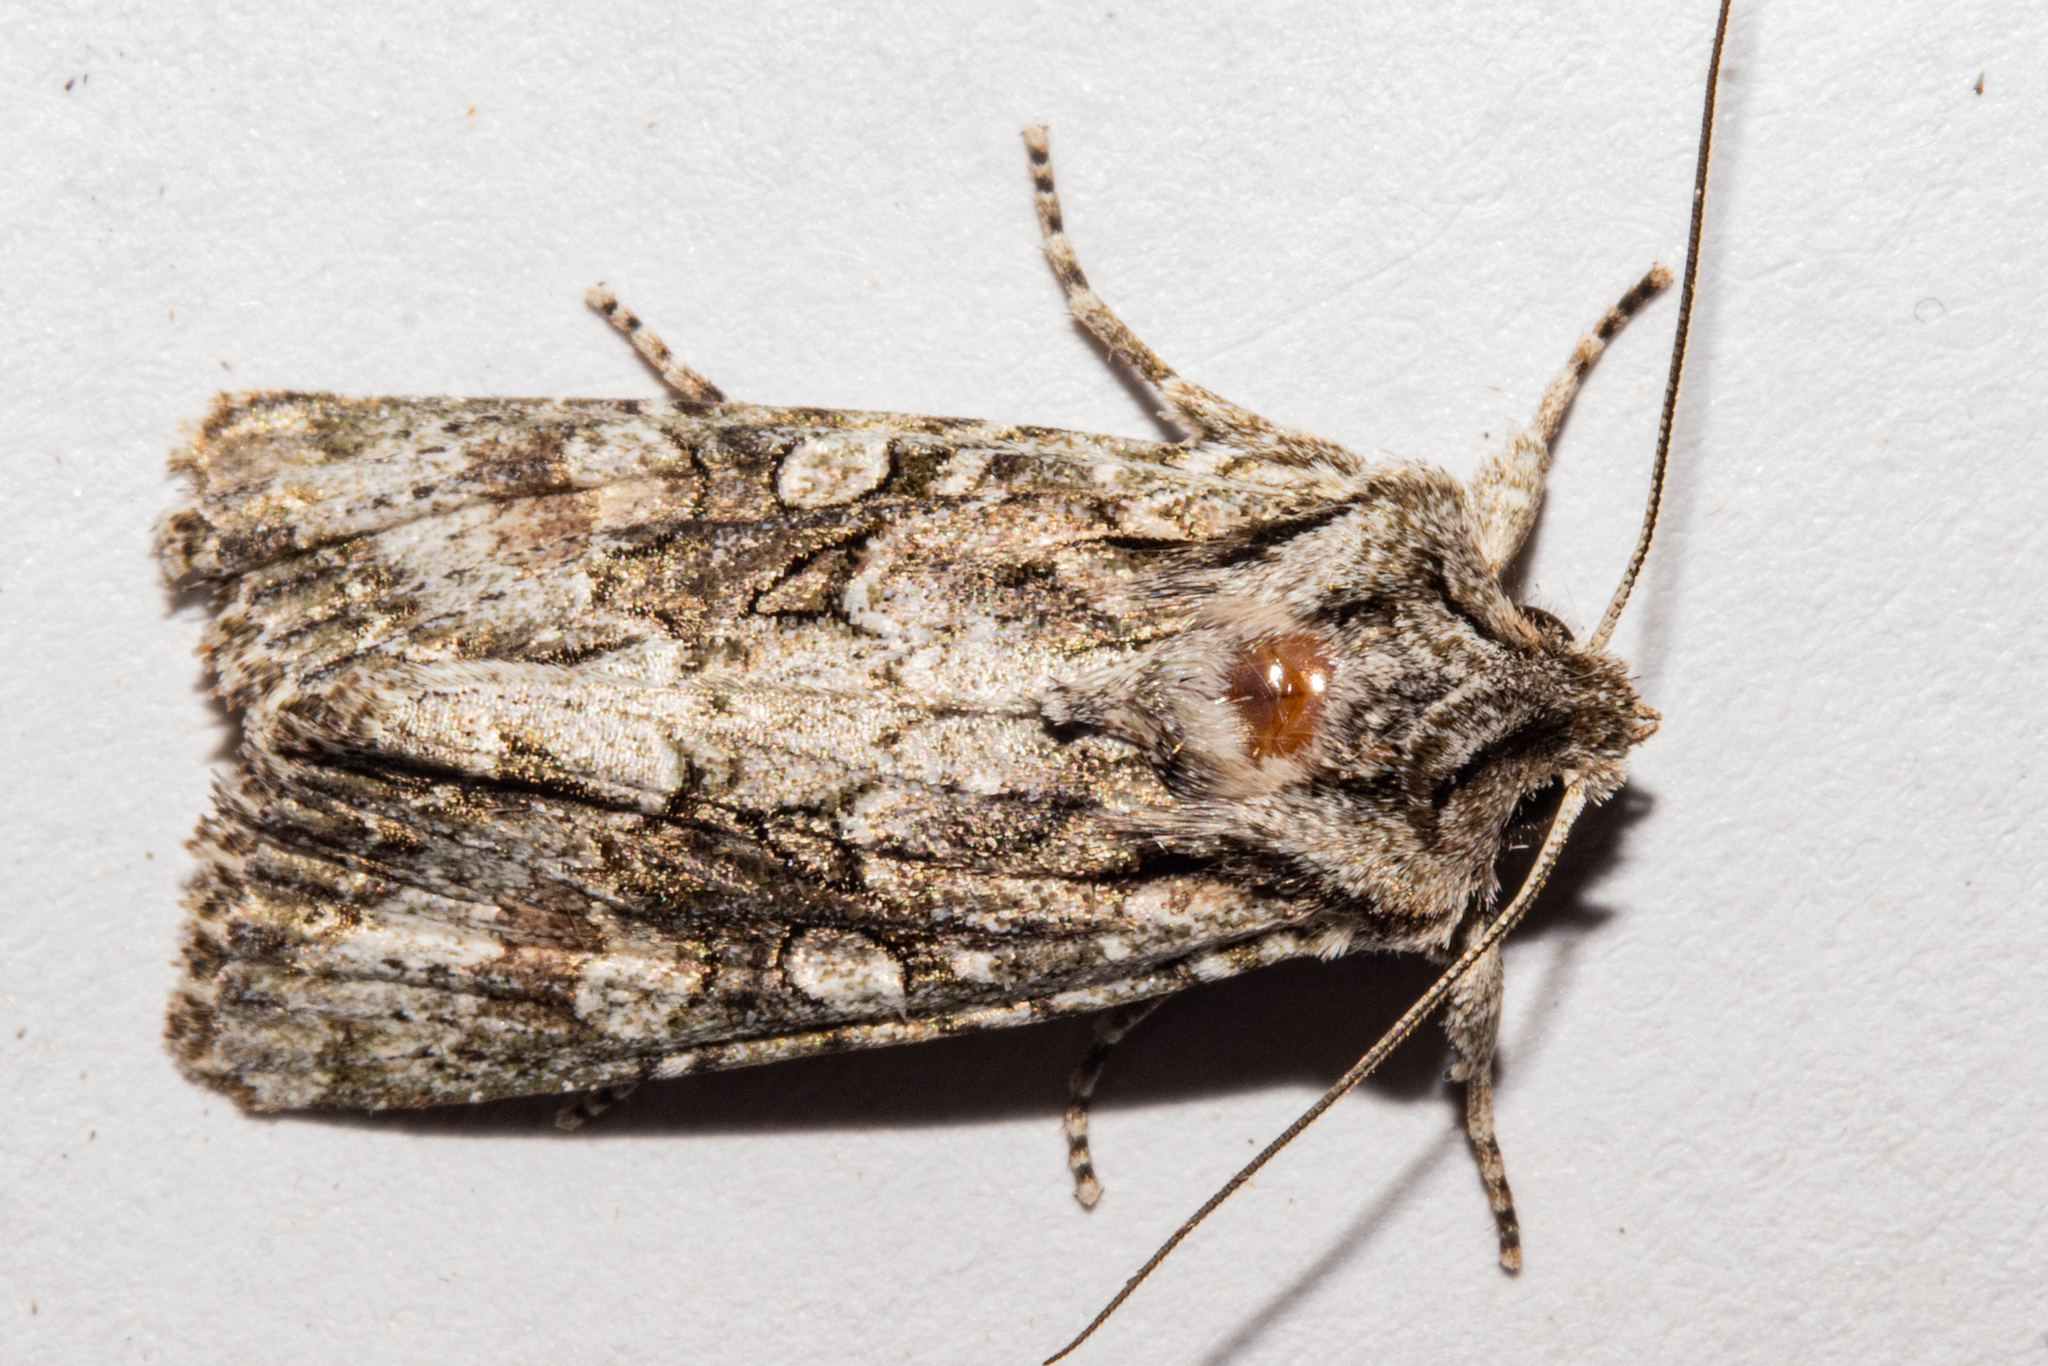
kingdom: Animalia
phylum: Arthropoda
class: Insecta
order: Lepidoptera
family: Noctuidae
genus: Ichneutica
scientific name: Ichneutica mutans
